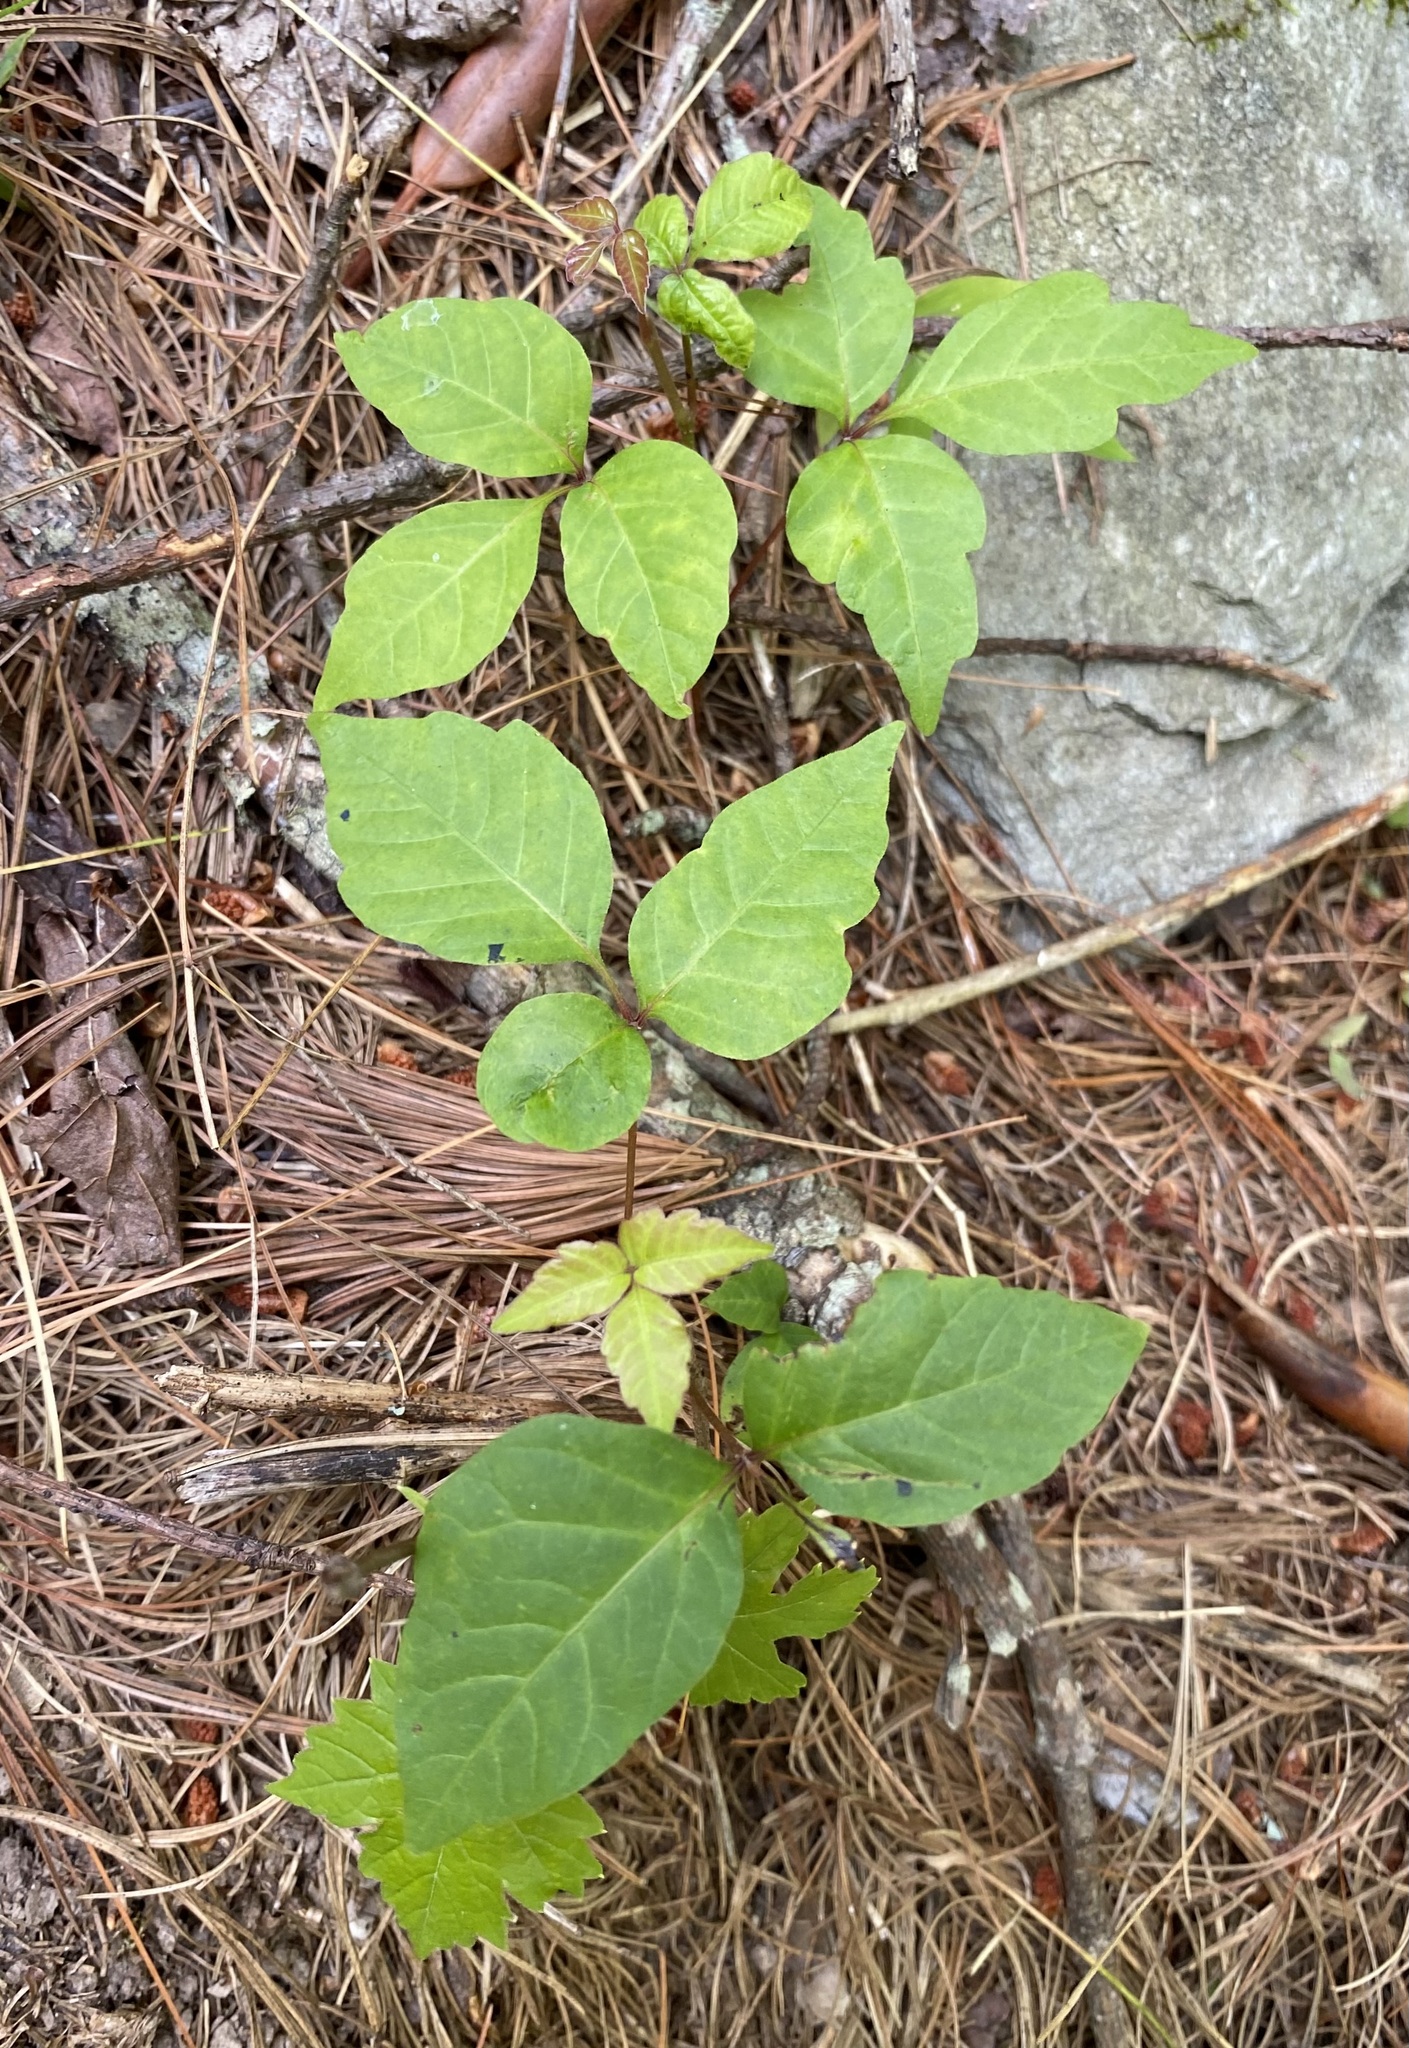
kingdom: Plantae
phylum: Tracheophyta
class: Magnoliopsida
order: Sapindales
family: Anacardiaceae
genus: Toxicodendron
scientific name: Toxicodendron radicans
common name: Poison ivy
